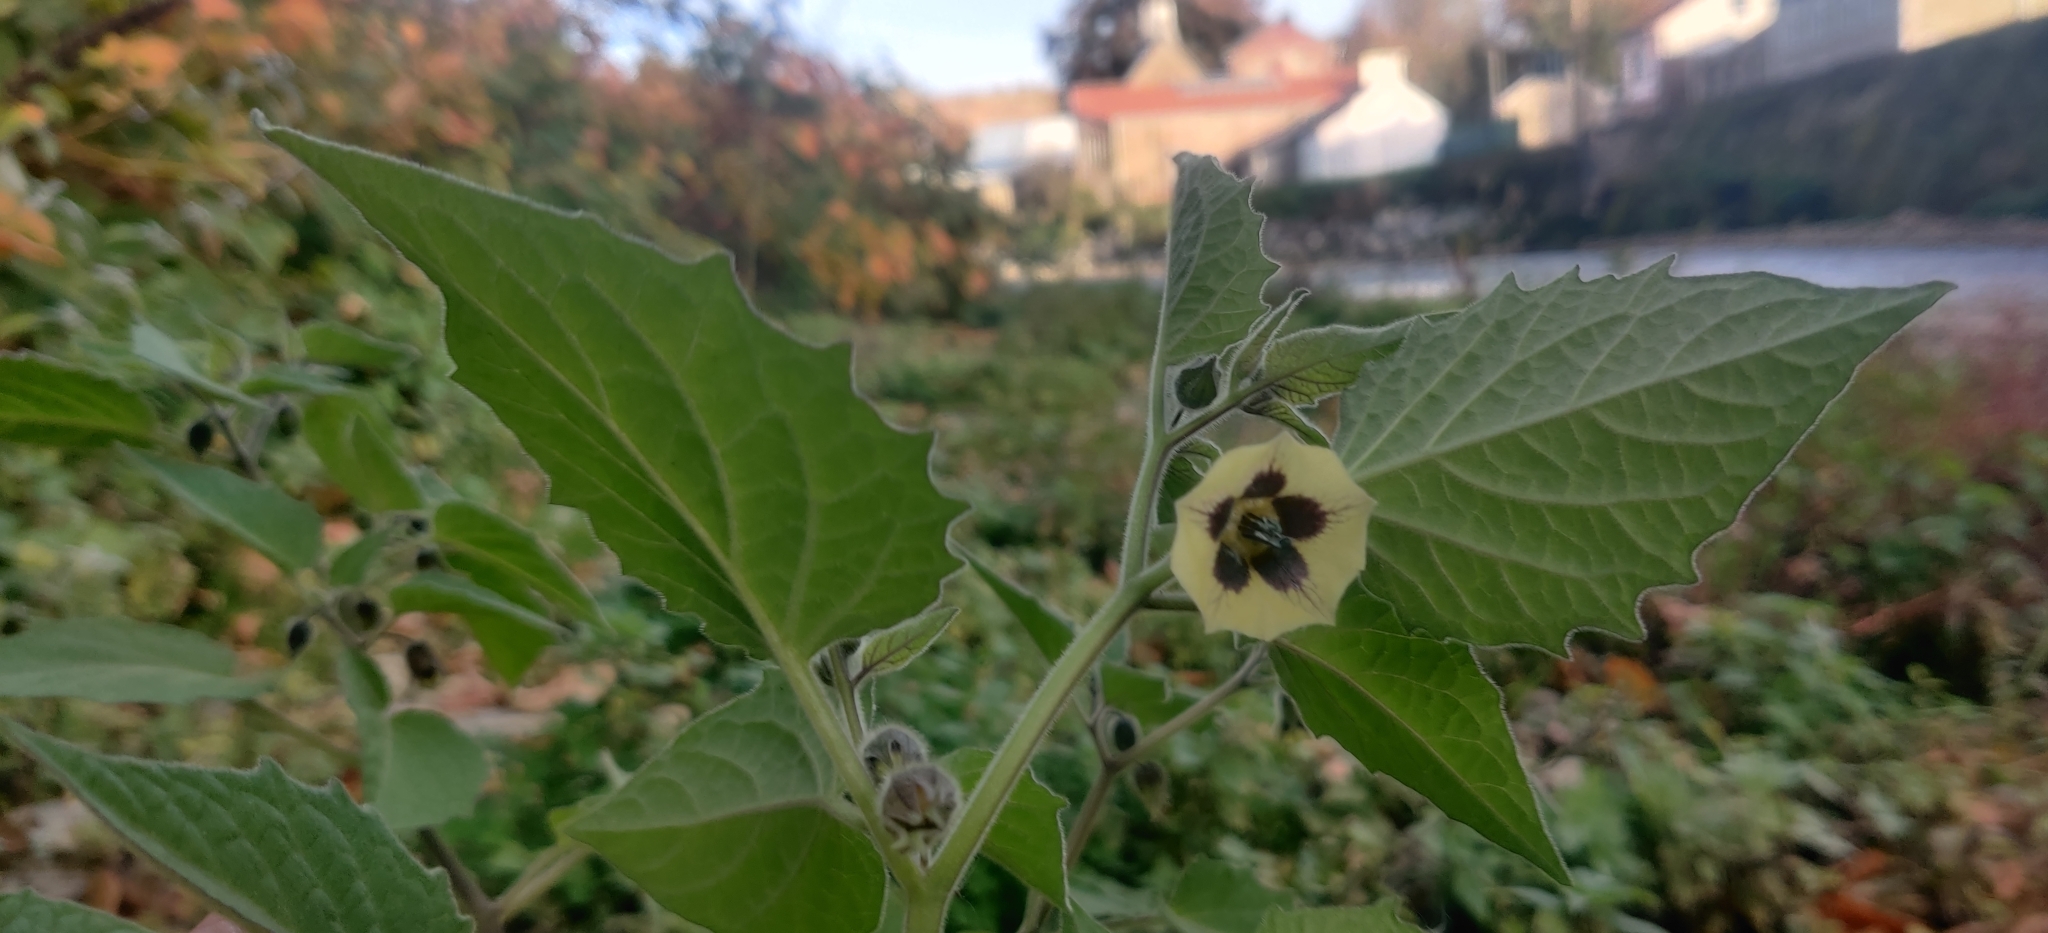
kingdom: Plantae
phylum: Tracheophyta
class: Magnoliopsida
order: Solanales
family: Solanaceae
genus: Physalis
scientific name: Physalis peruviana
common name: Cape-gooseberry
